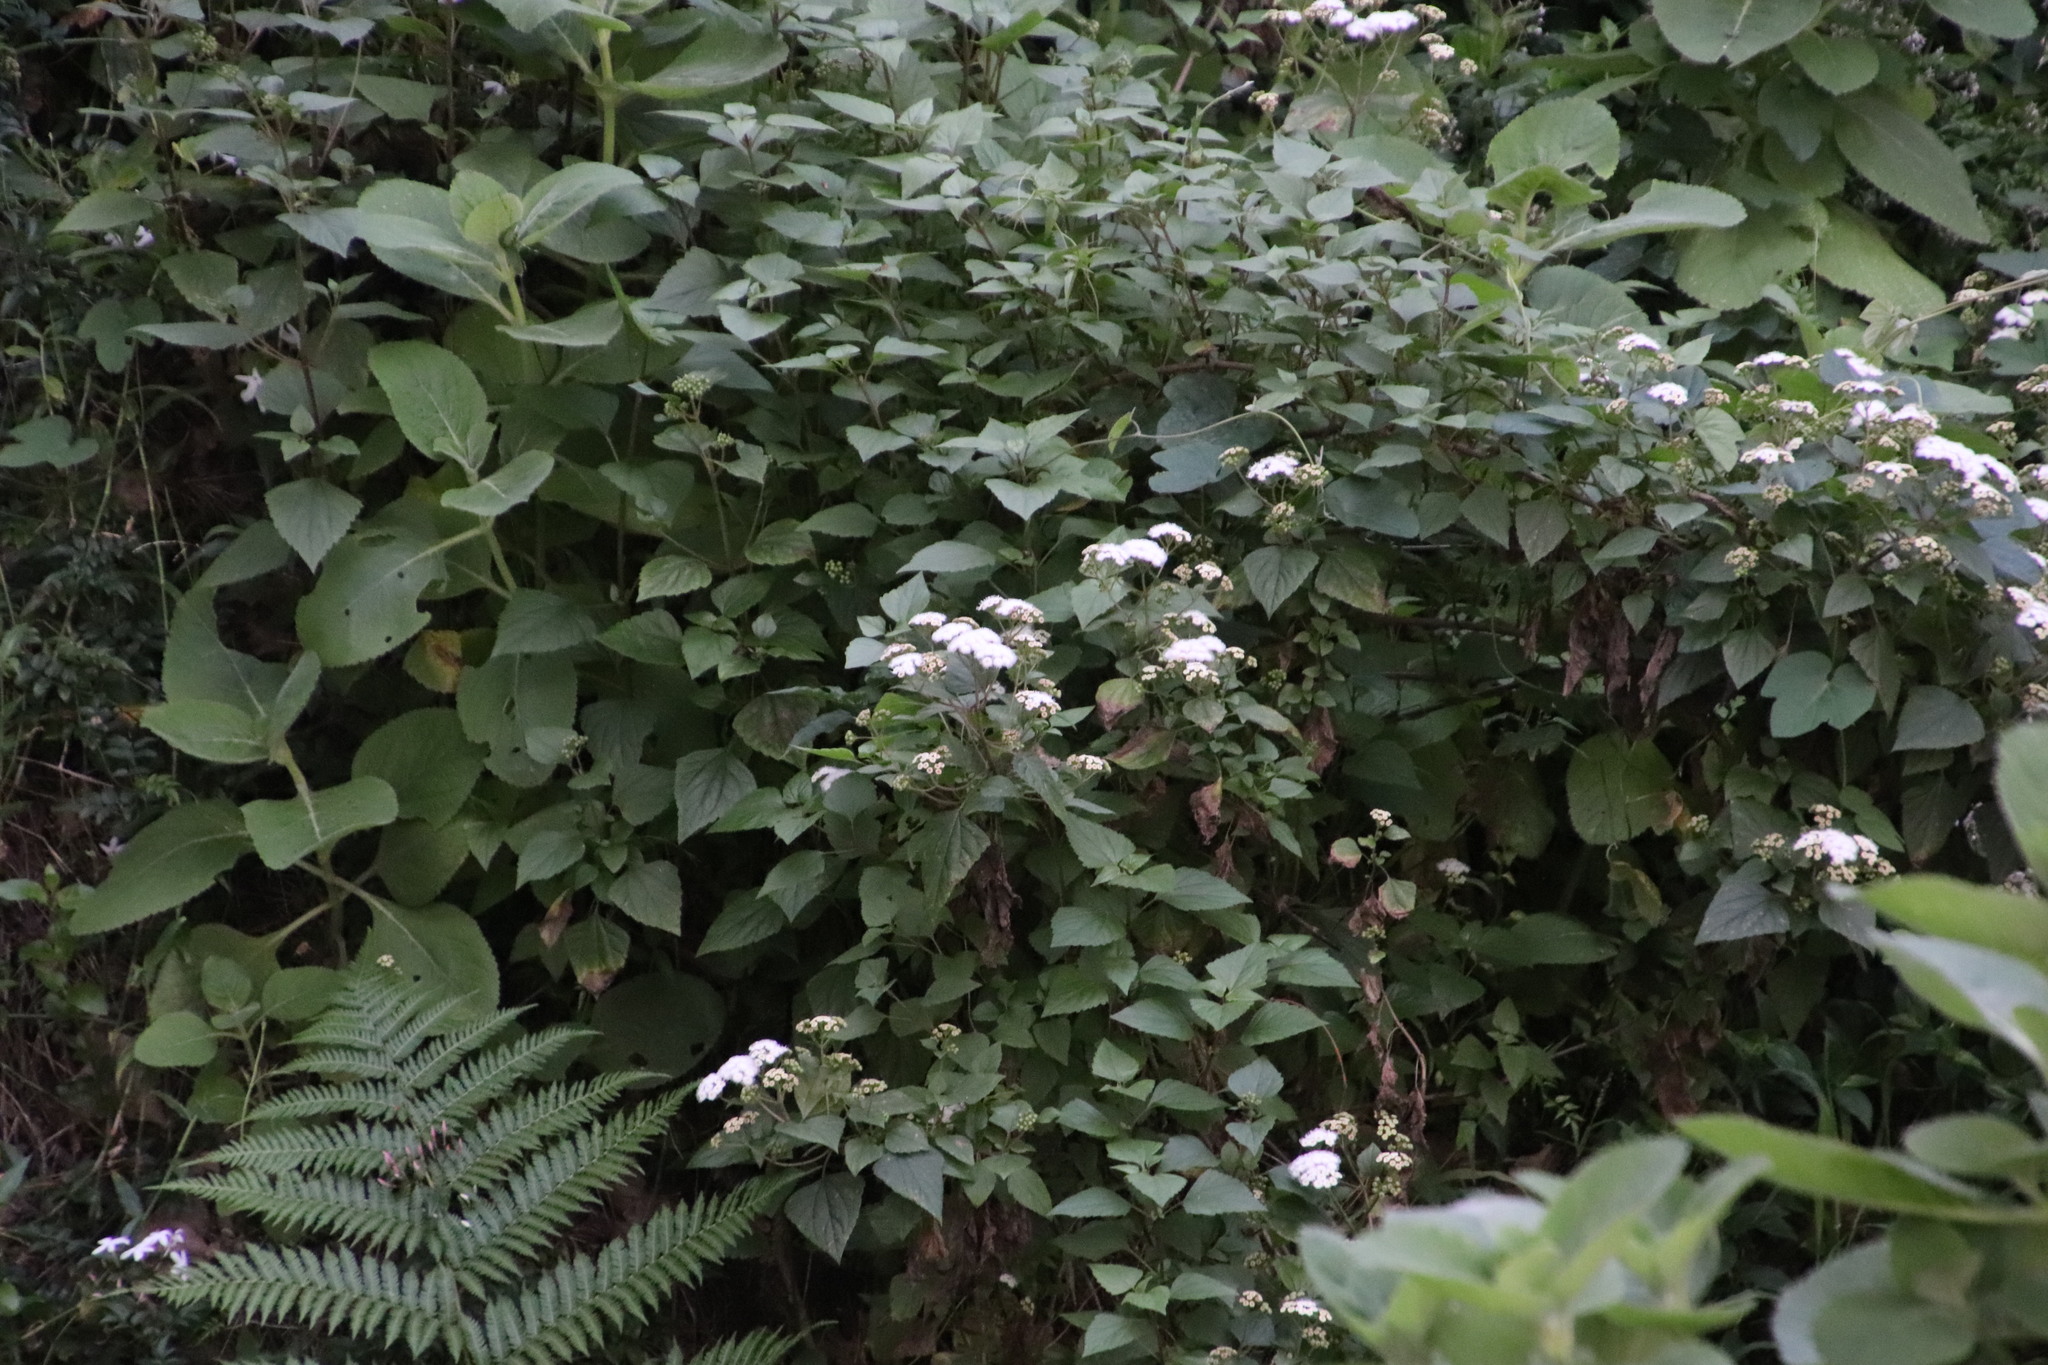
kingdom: Plantae
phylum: Tracheophyta
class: Magnoliopsida
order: Asterales
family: Asteraceae
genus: Ageratina
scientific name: Ageratina adenophora
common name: Sticky snakeroot
